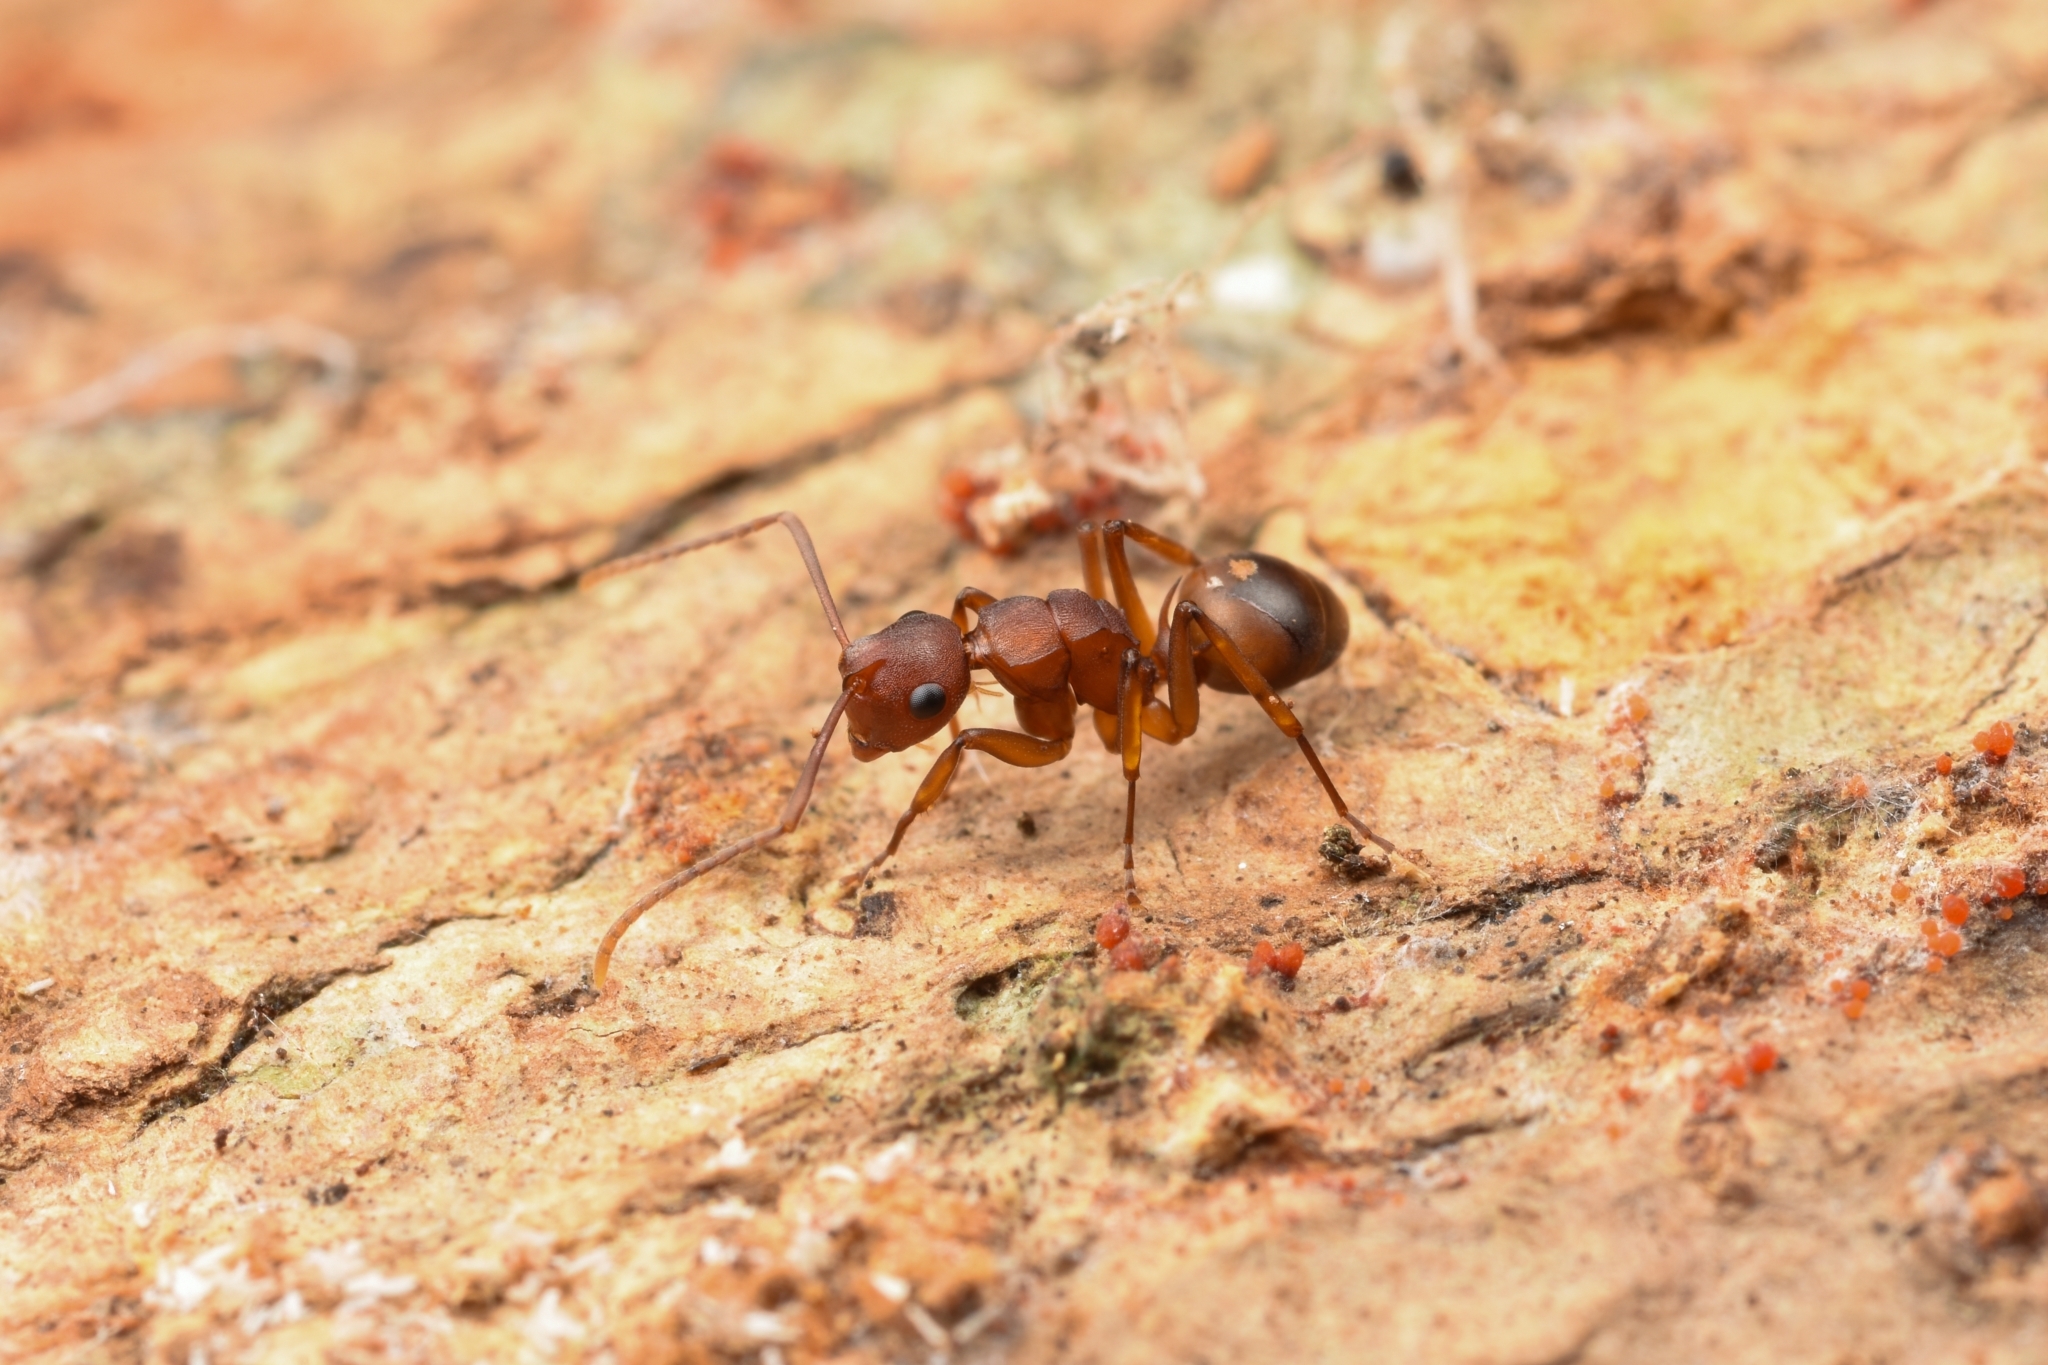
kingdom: Animalia
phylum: Arthropoda
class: Insecta
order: Hymenoptera
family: Formicidae
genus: Polyrhachis
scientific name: Polyrhachis varicolor
